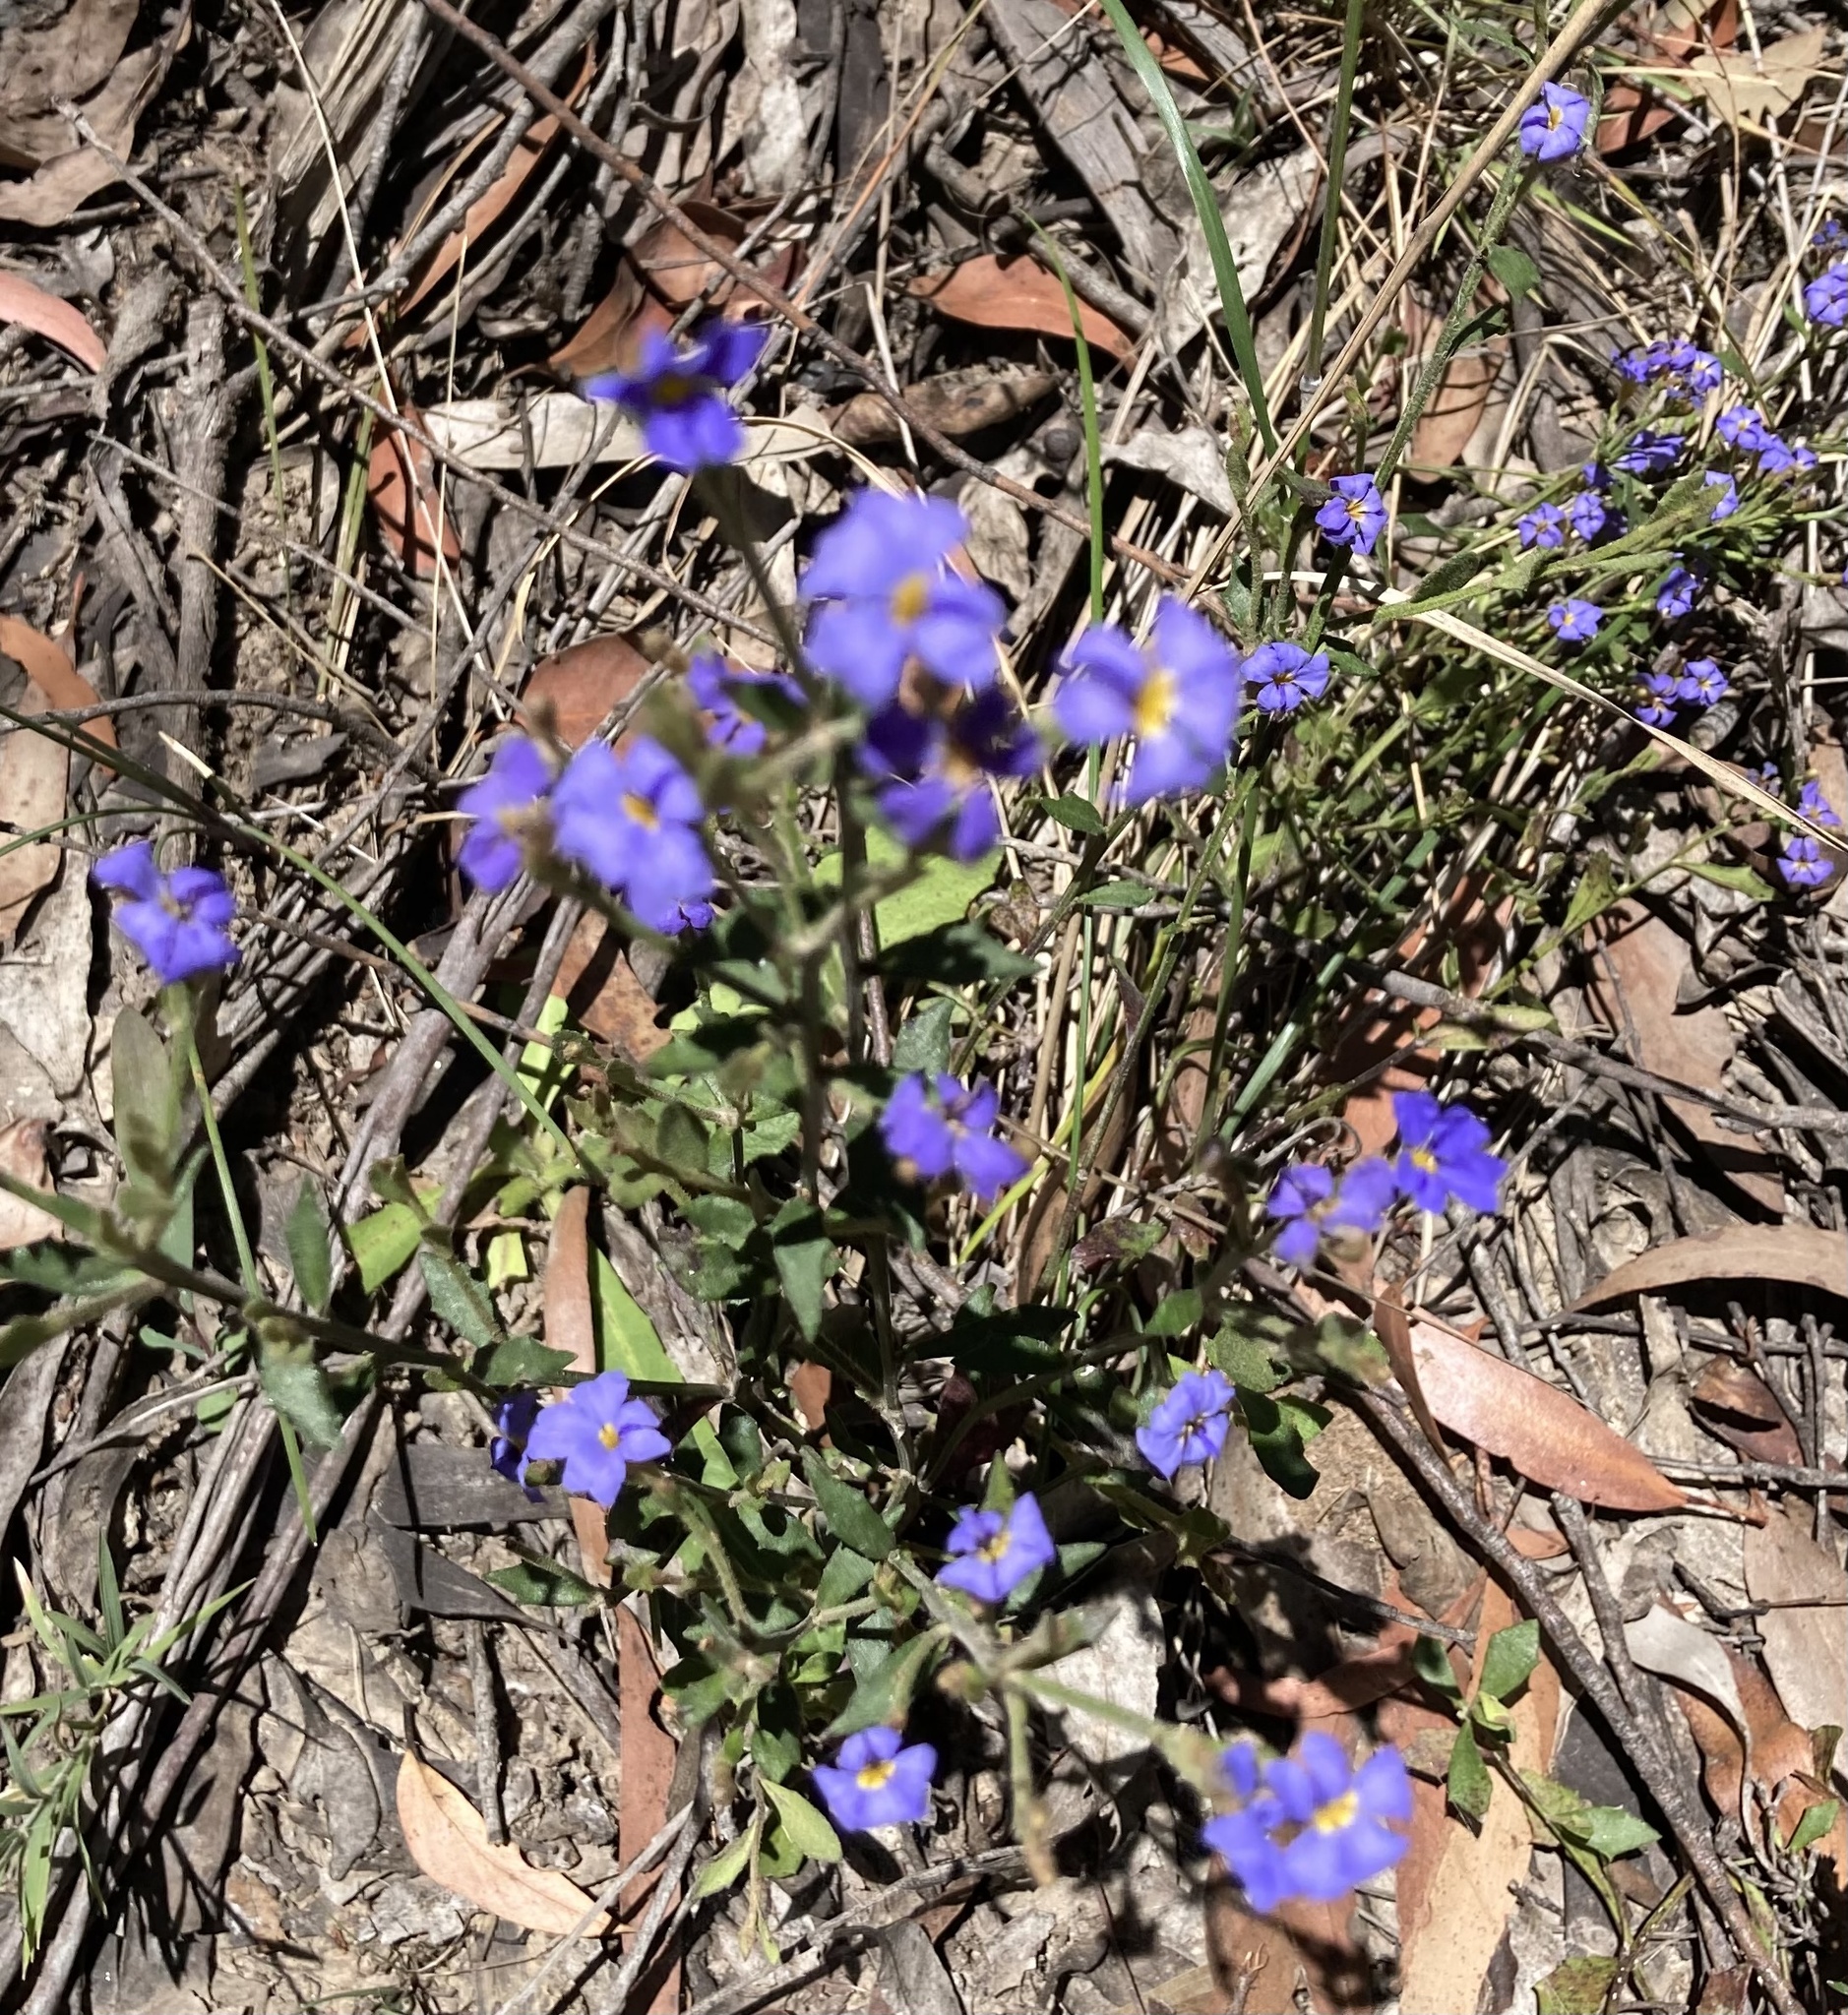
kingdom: Plantae
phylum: Tracheophyta
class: Magnoliopsida
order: Asterales
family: Goodeniaceae
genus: Dampiera
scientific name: Dampiera stricta
